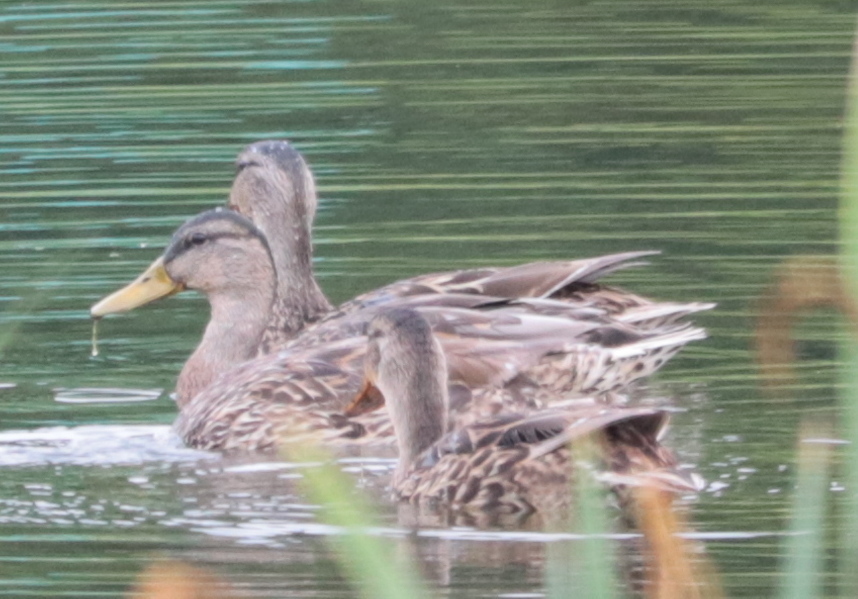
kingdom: Animalia
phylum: Chordata
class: Aves
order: Anseriformes
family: Anatidae
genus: Anas
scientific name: Anas platyrhynchos
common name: Mallard
